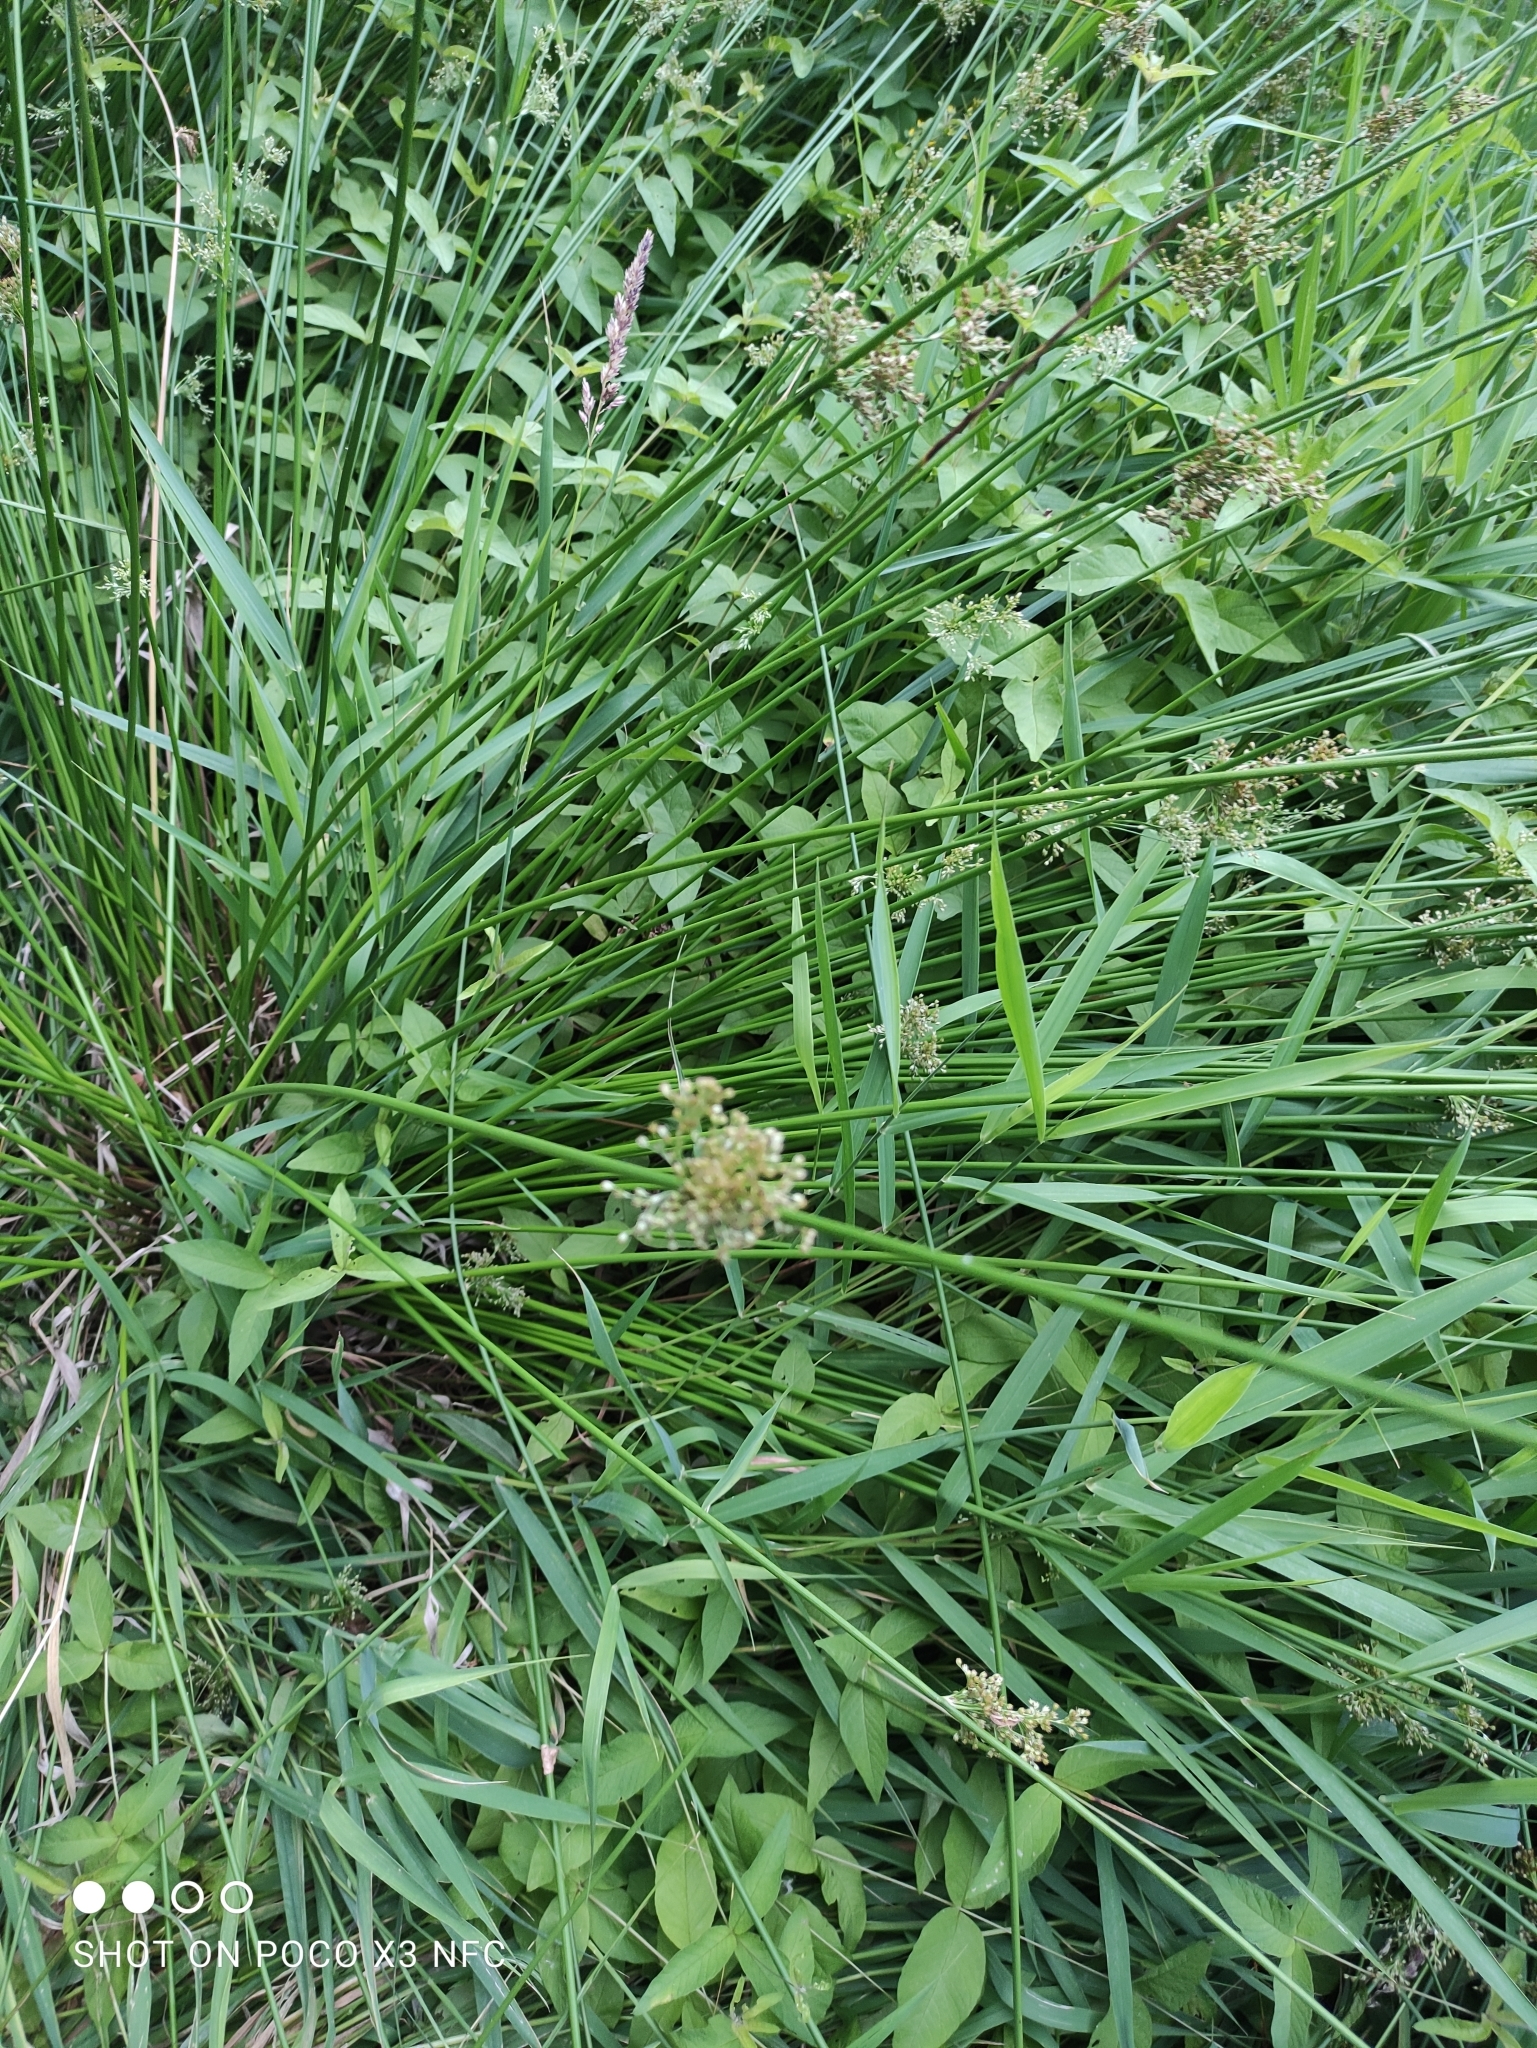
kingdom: Plantae
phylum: Tracheophyta
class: Liliopsida
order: Poales
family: Juncaceae
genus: Juncus
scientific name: Juncus effusus
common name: Soft rush
